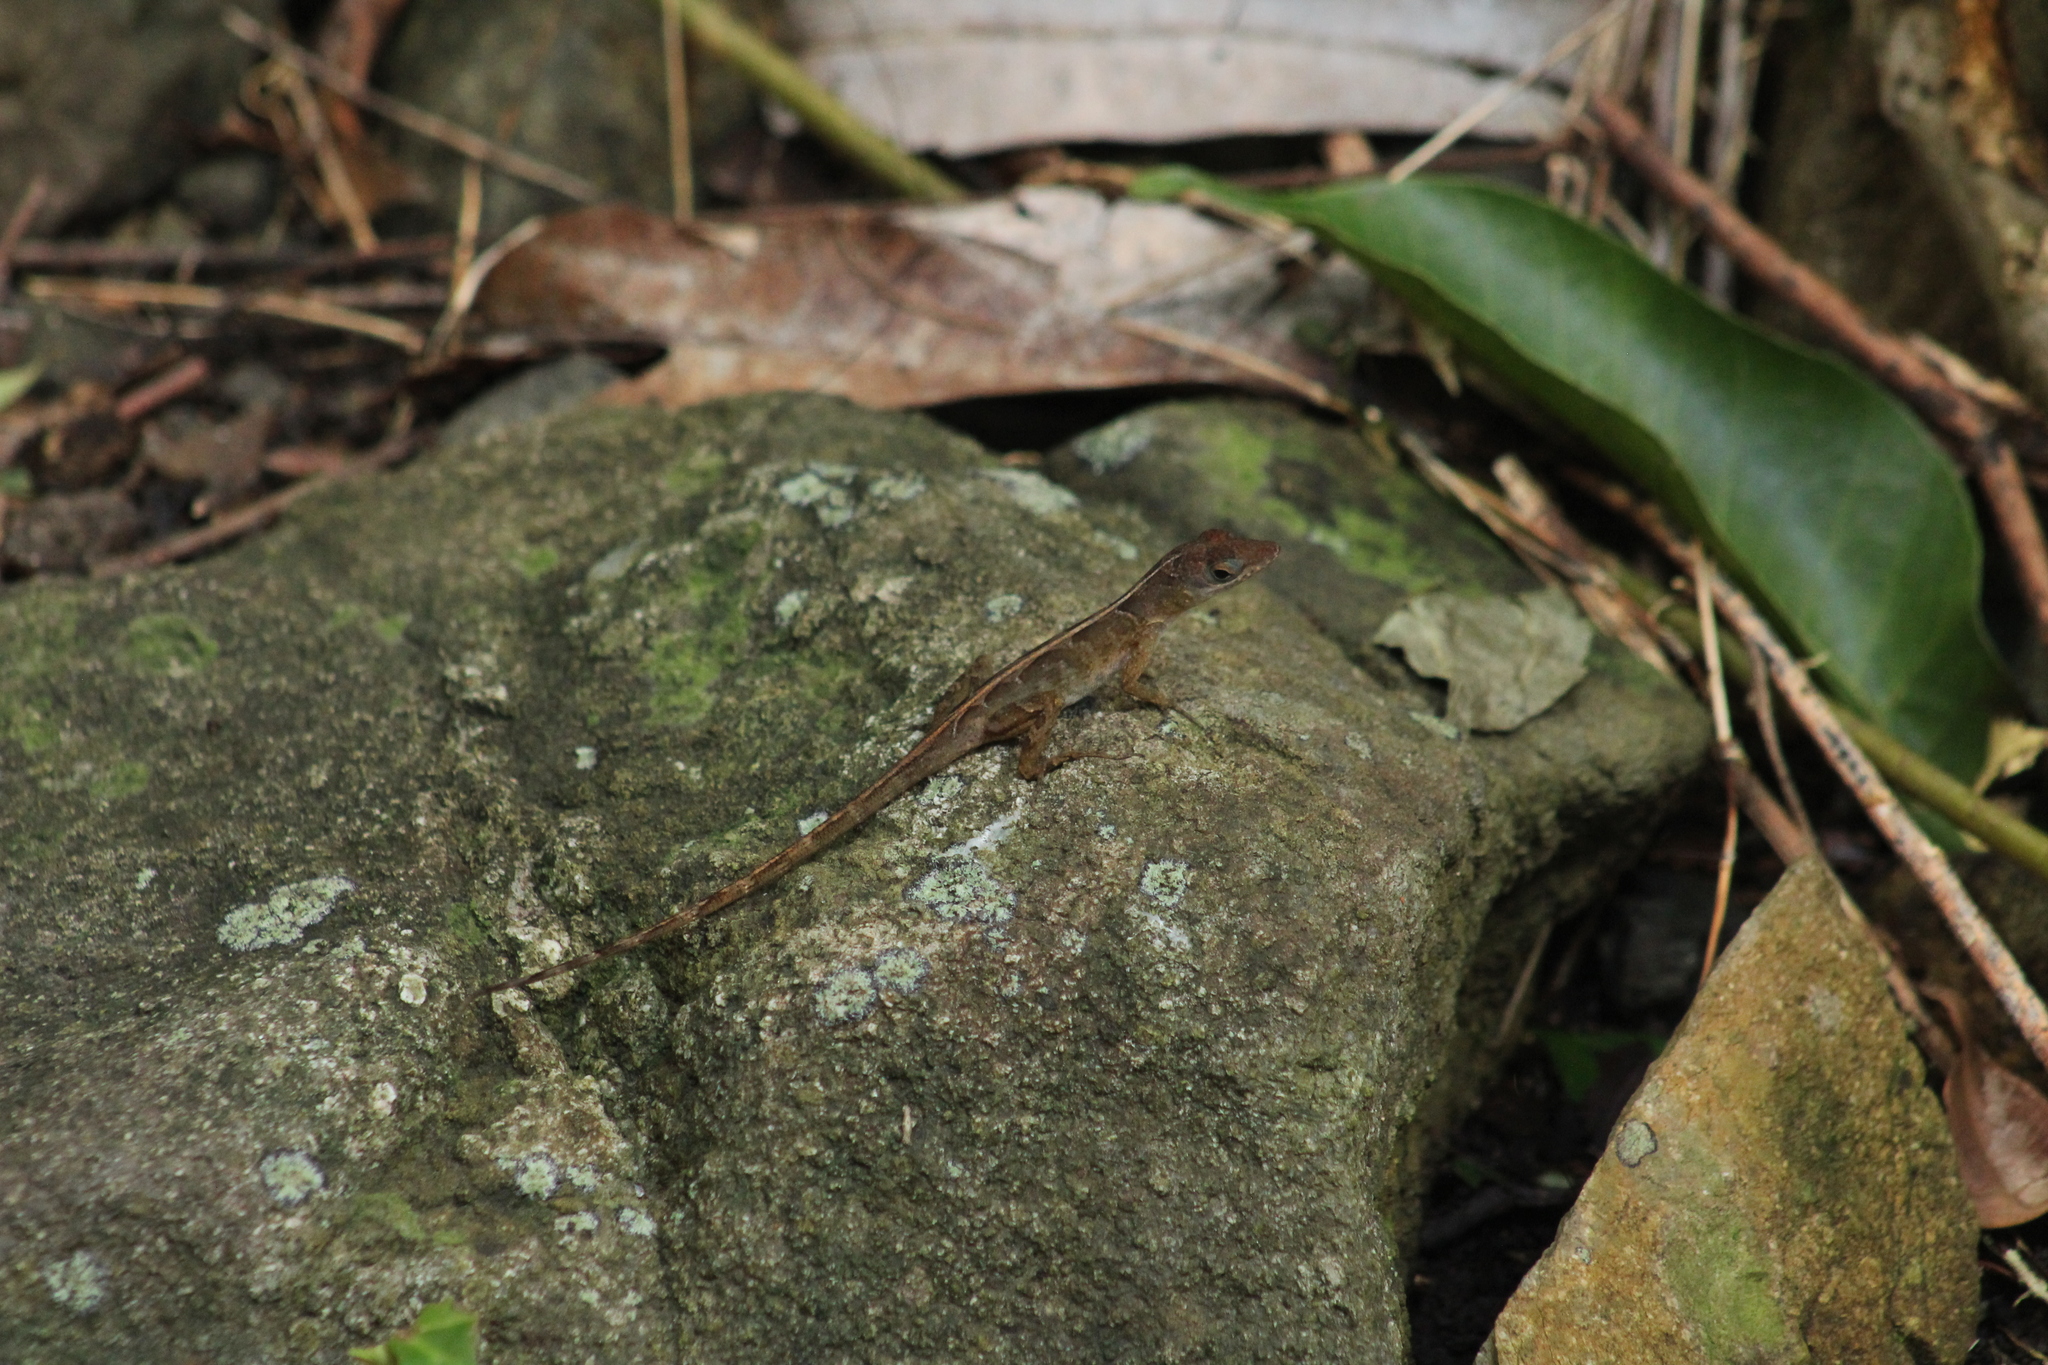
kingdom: Animalia
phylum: Chordata
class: Squamata
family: Dactyloidae
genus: Anolis
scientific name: Anolis pogus
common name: Anguilla bank bush anole
